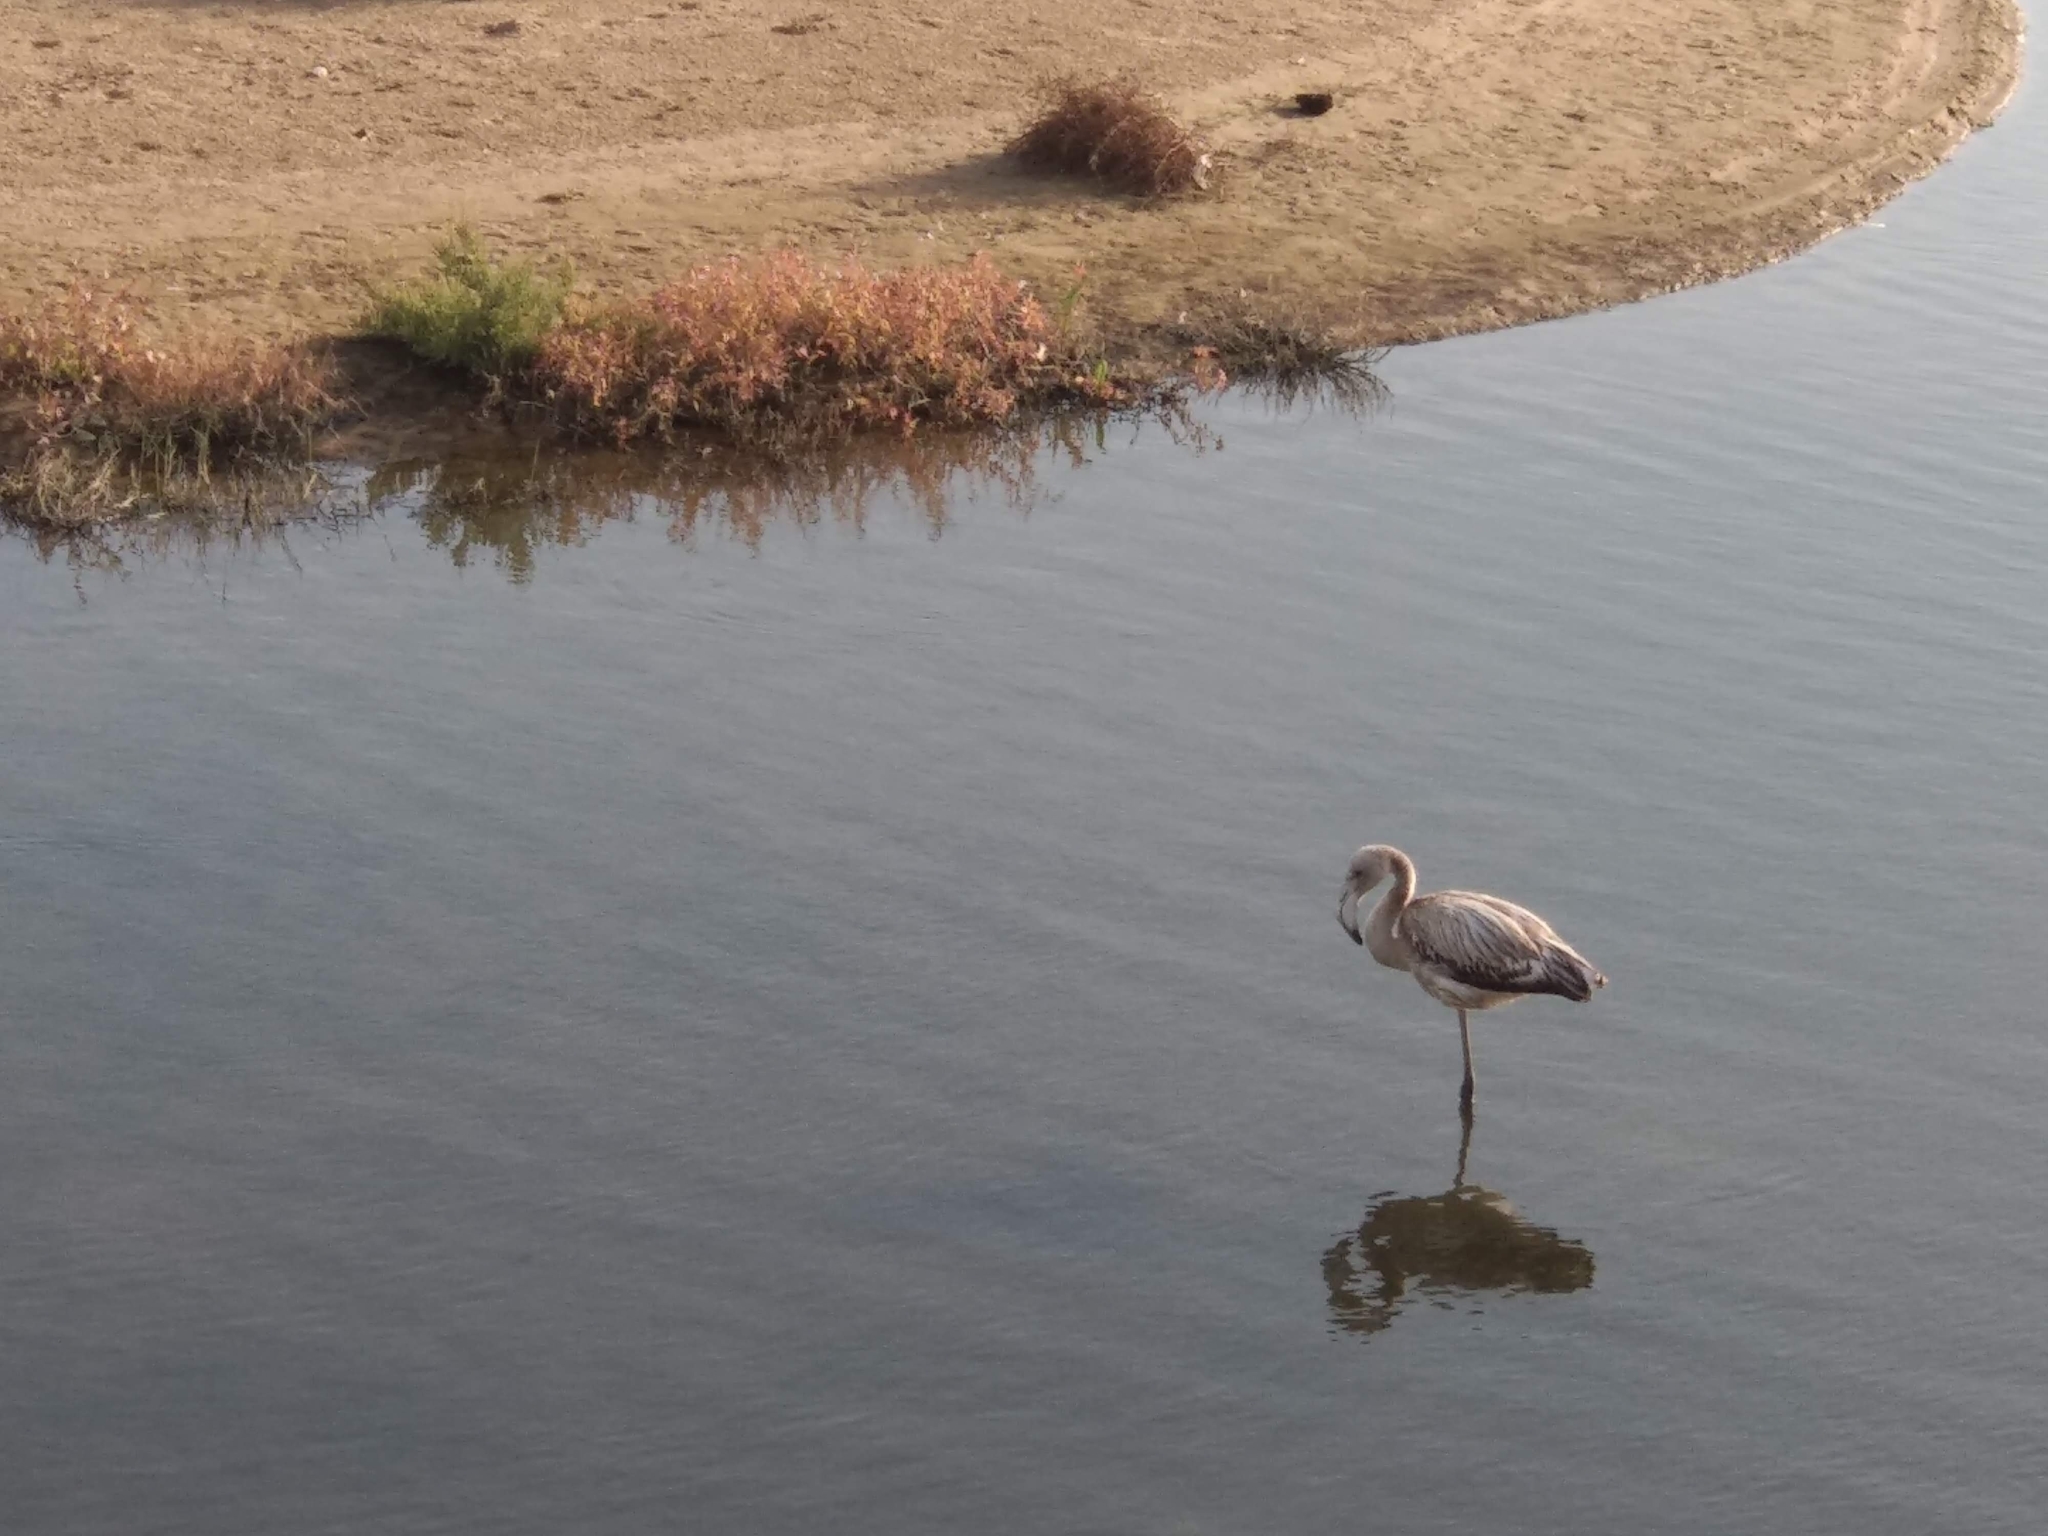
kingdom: Animalia
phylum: Chordata
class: Aves
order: Phoenicopteriformes
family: Phoenicopteridae
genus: Phoenicopterus
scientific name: Phoenicopterus roseus
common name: Greater flamingo
